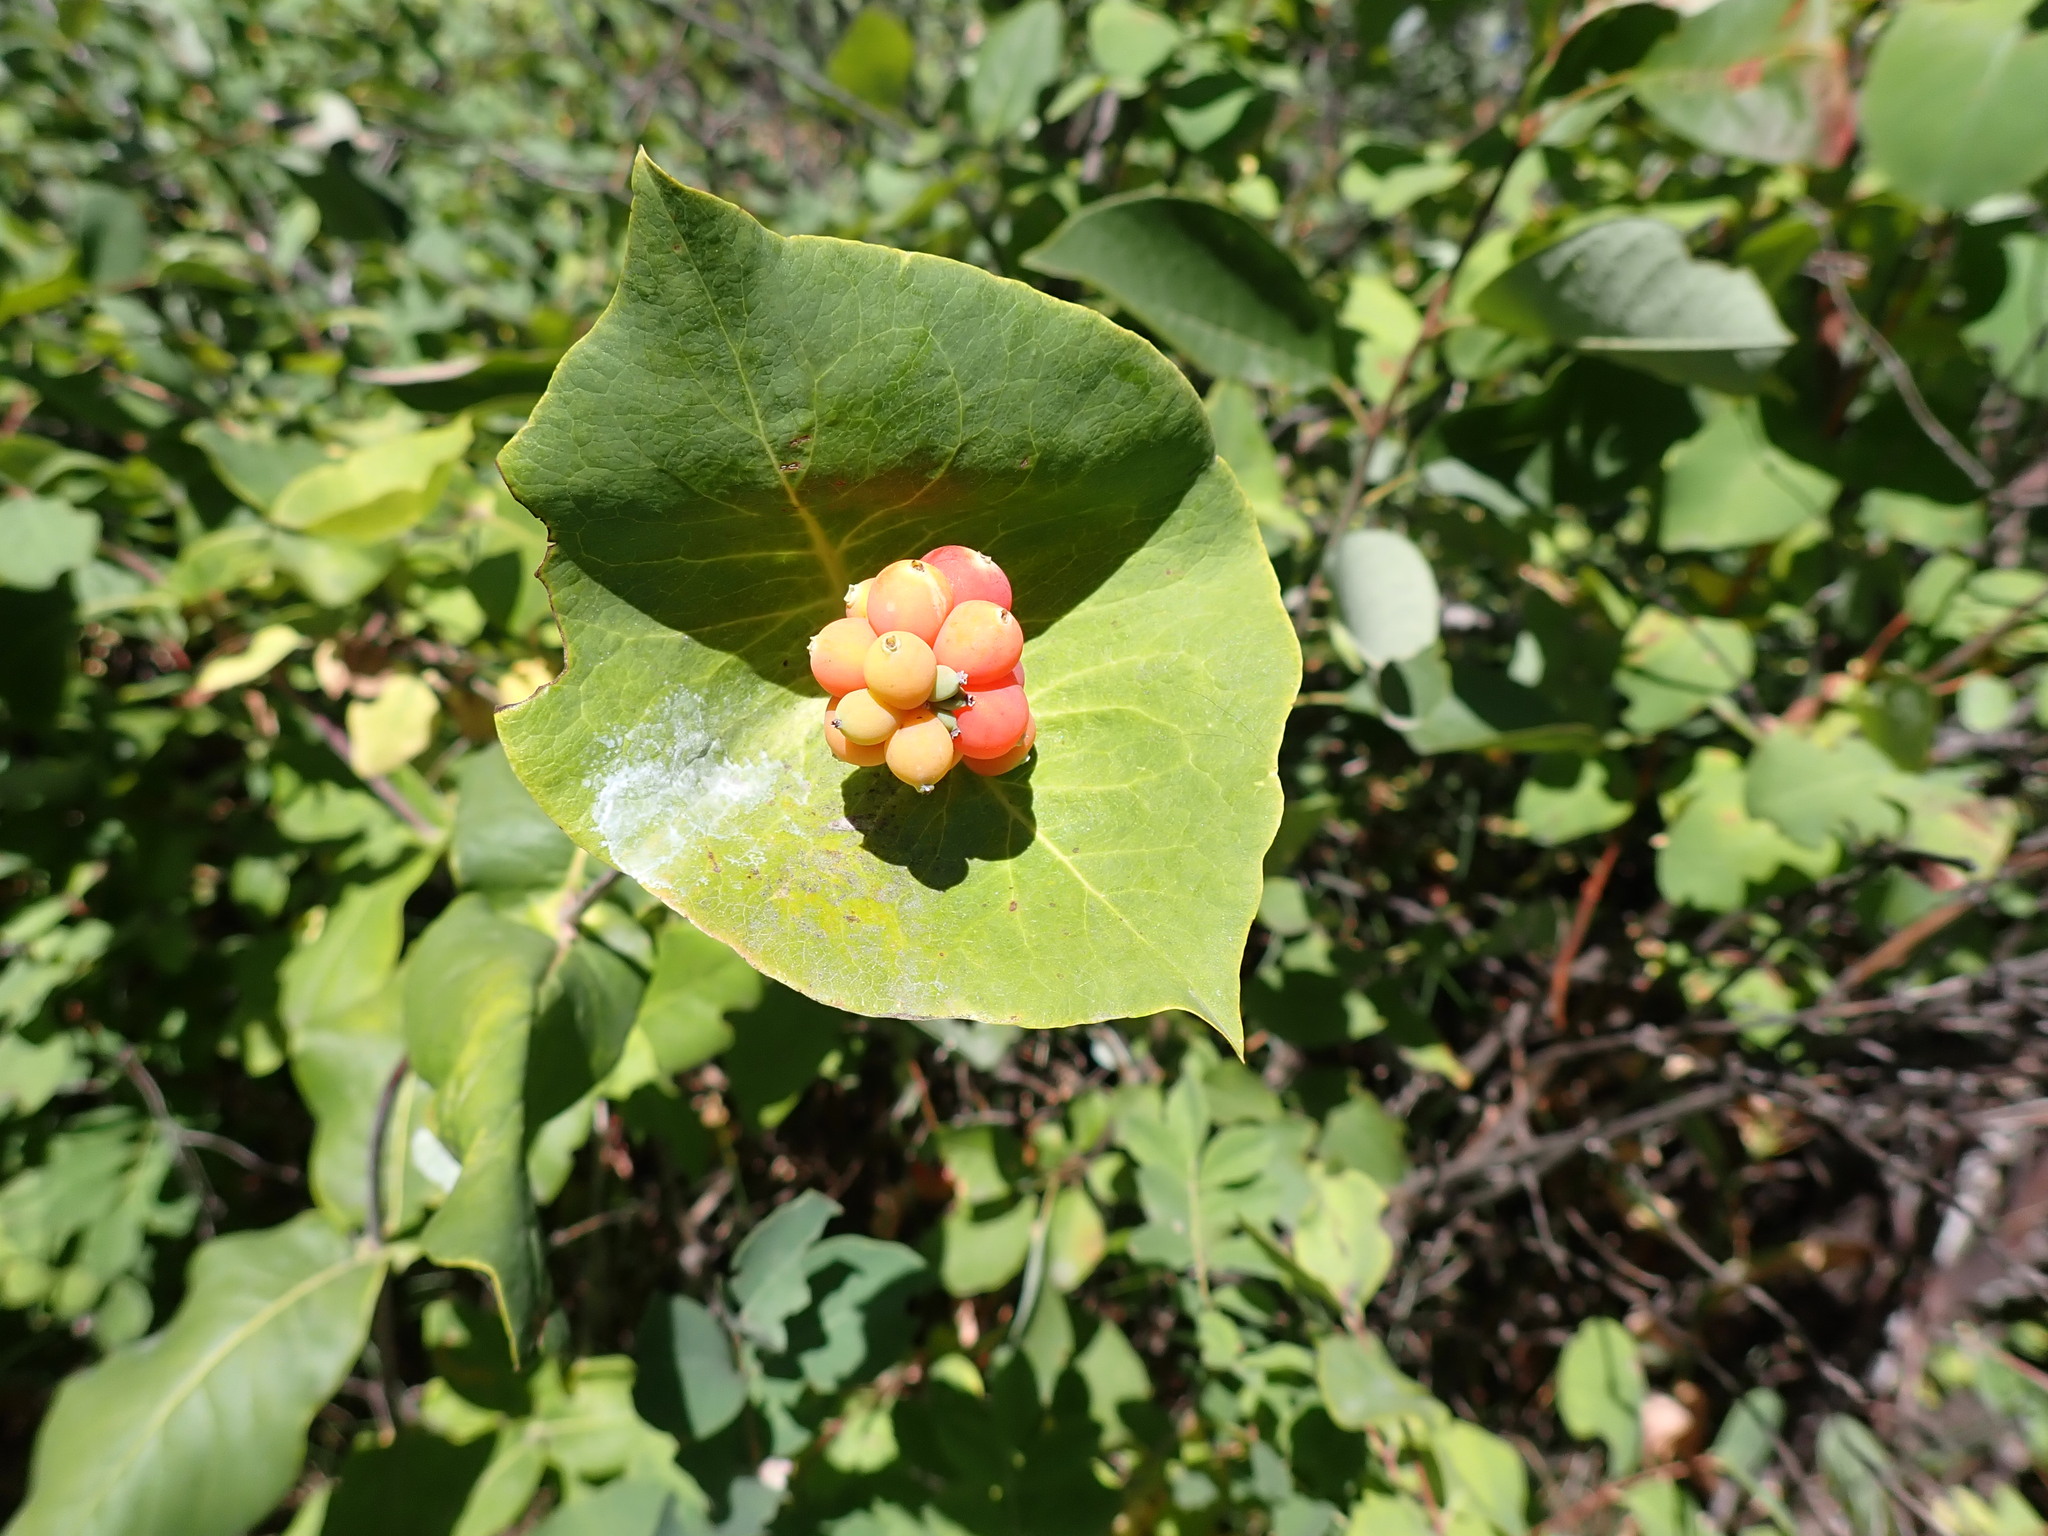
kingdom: Plantae
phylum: Tracheophyta
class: Magnoliopsida
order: Dipsacales
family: Caprifoliaceae
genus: Lonicera
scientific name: Lonicera dioica
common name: Limber honeysuckle
